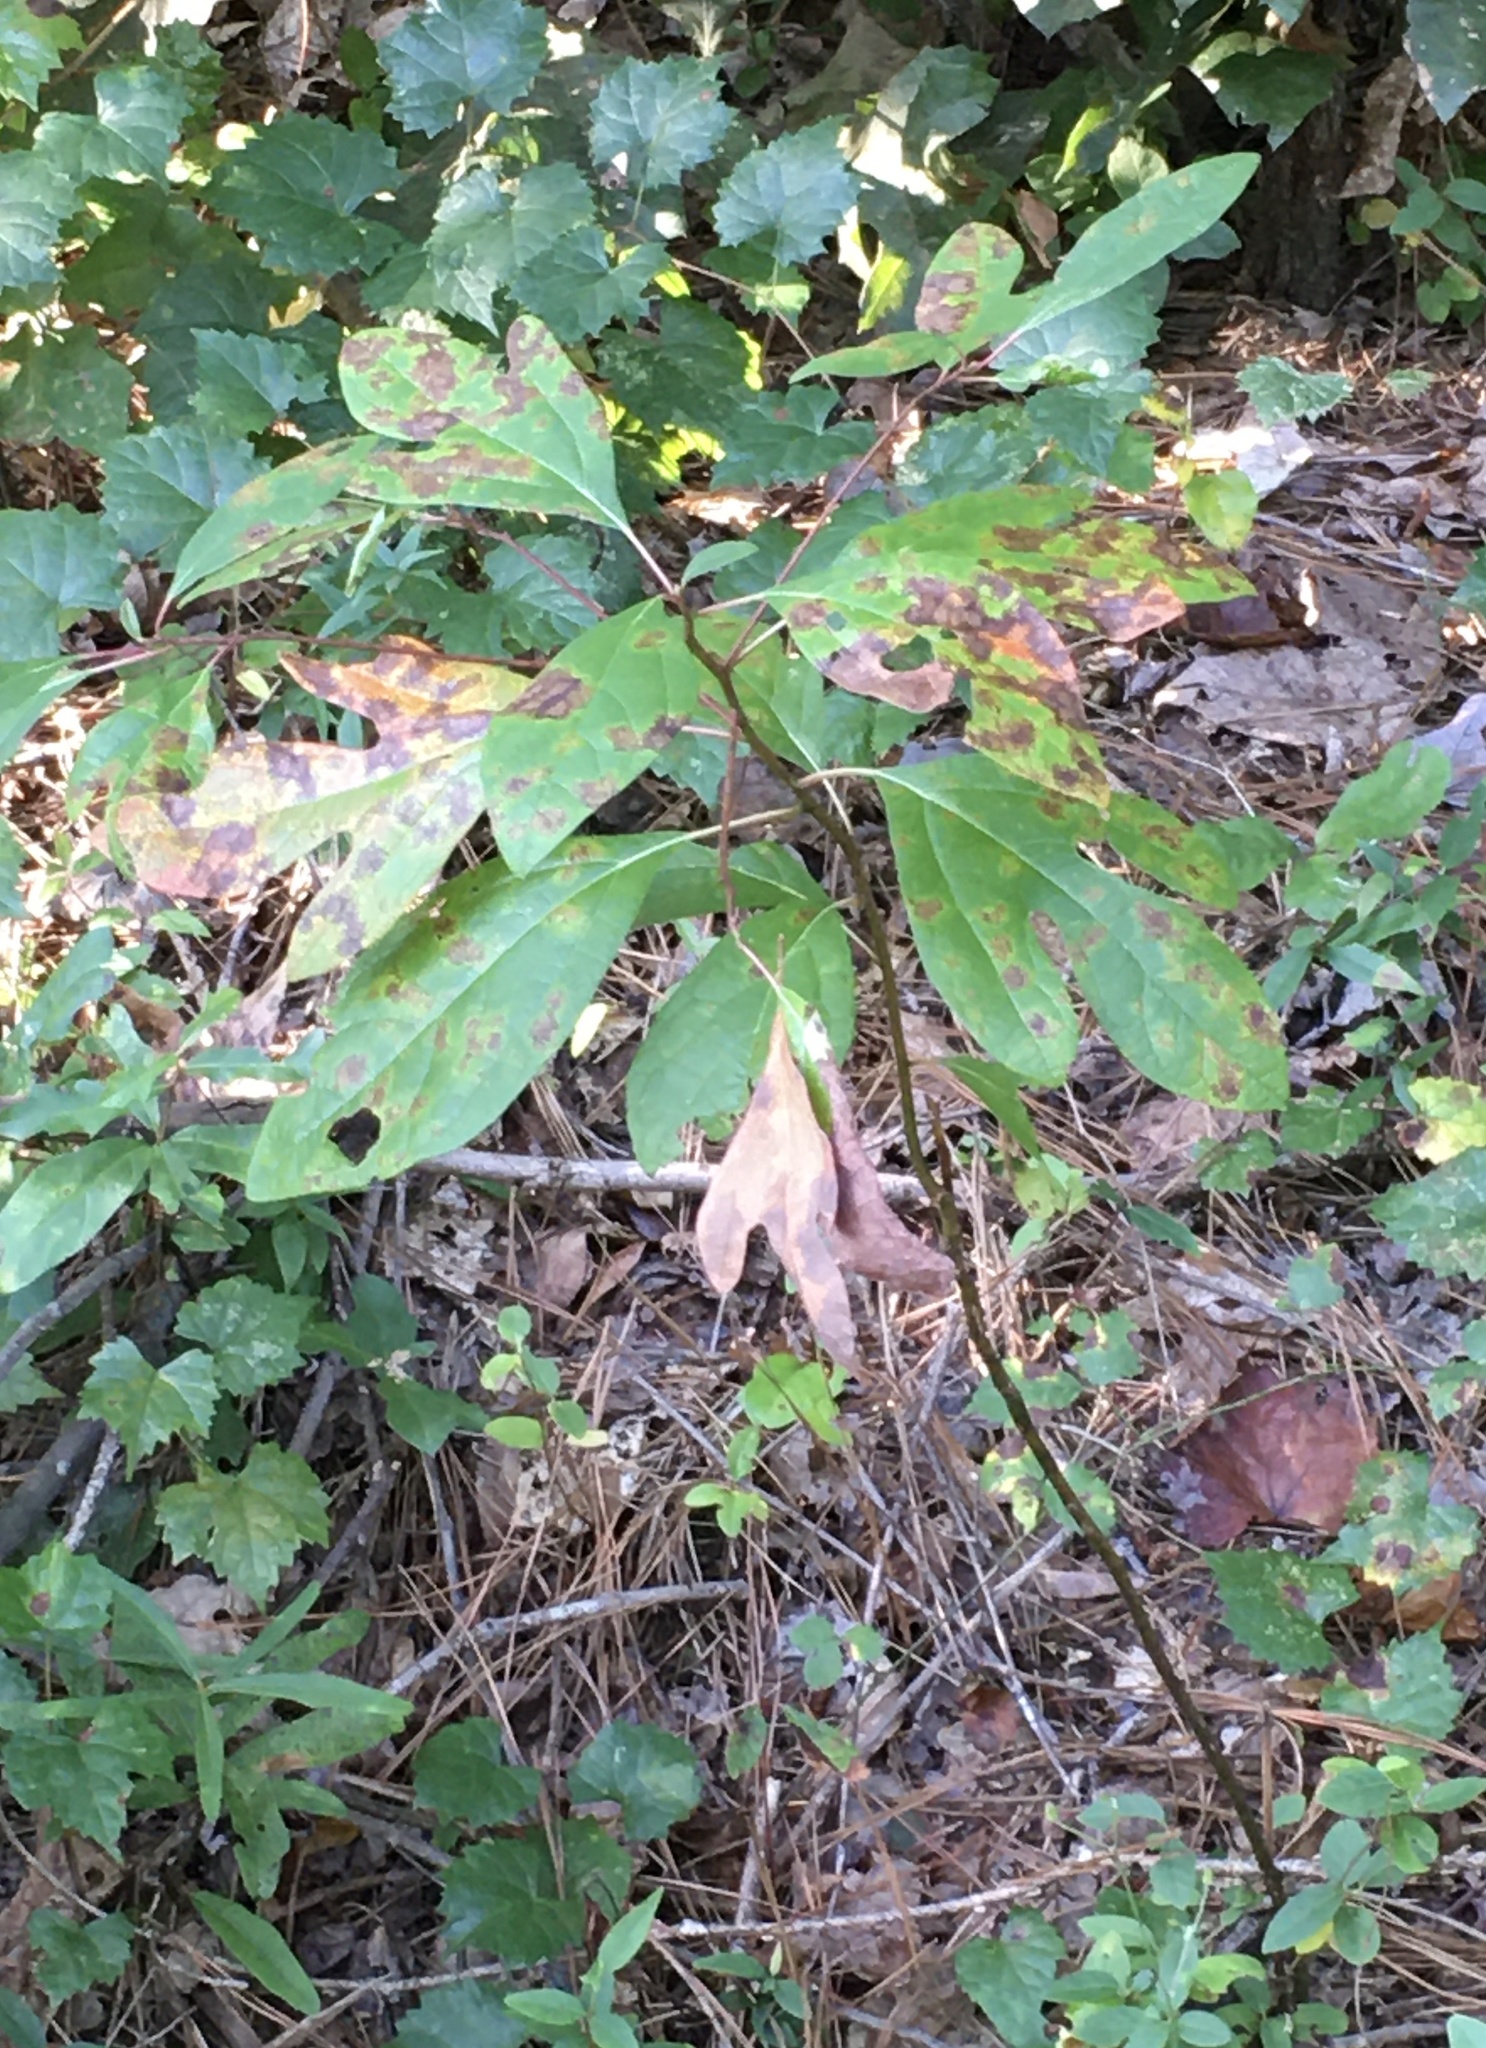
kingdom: Plantae
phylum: Tracheophyta
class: Magnoliopsida
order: Laurales
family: Lauraceae
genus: Sassafras
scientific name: Sassafras albidum
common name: Sassafras
